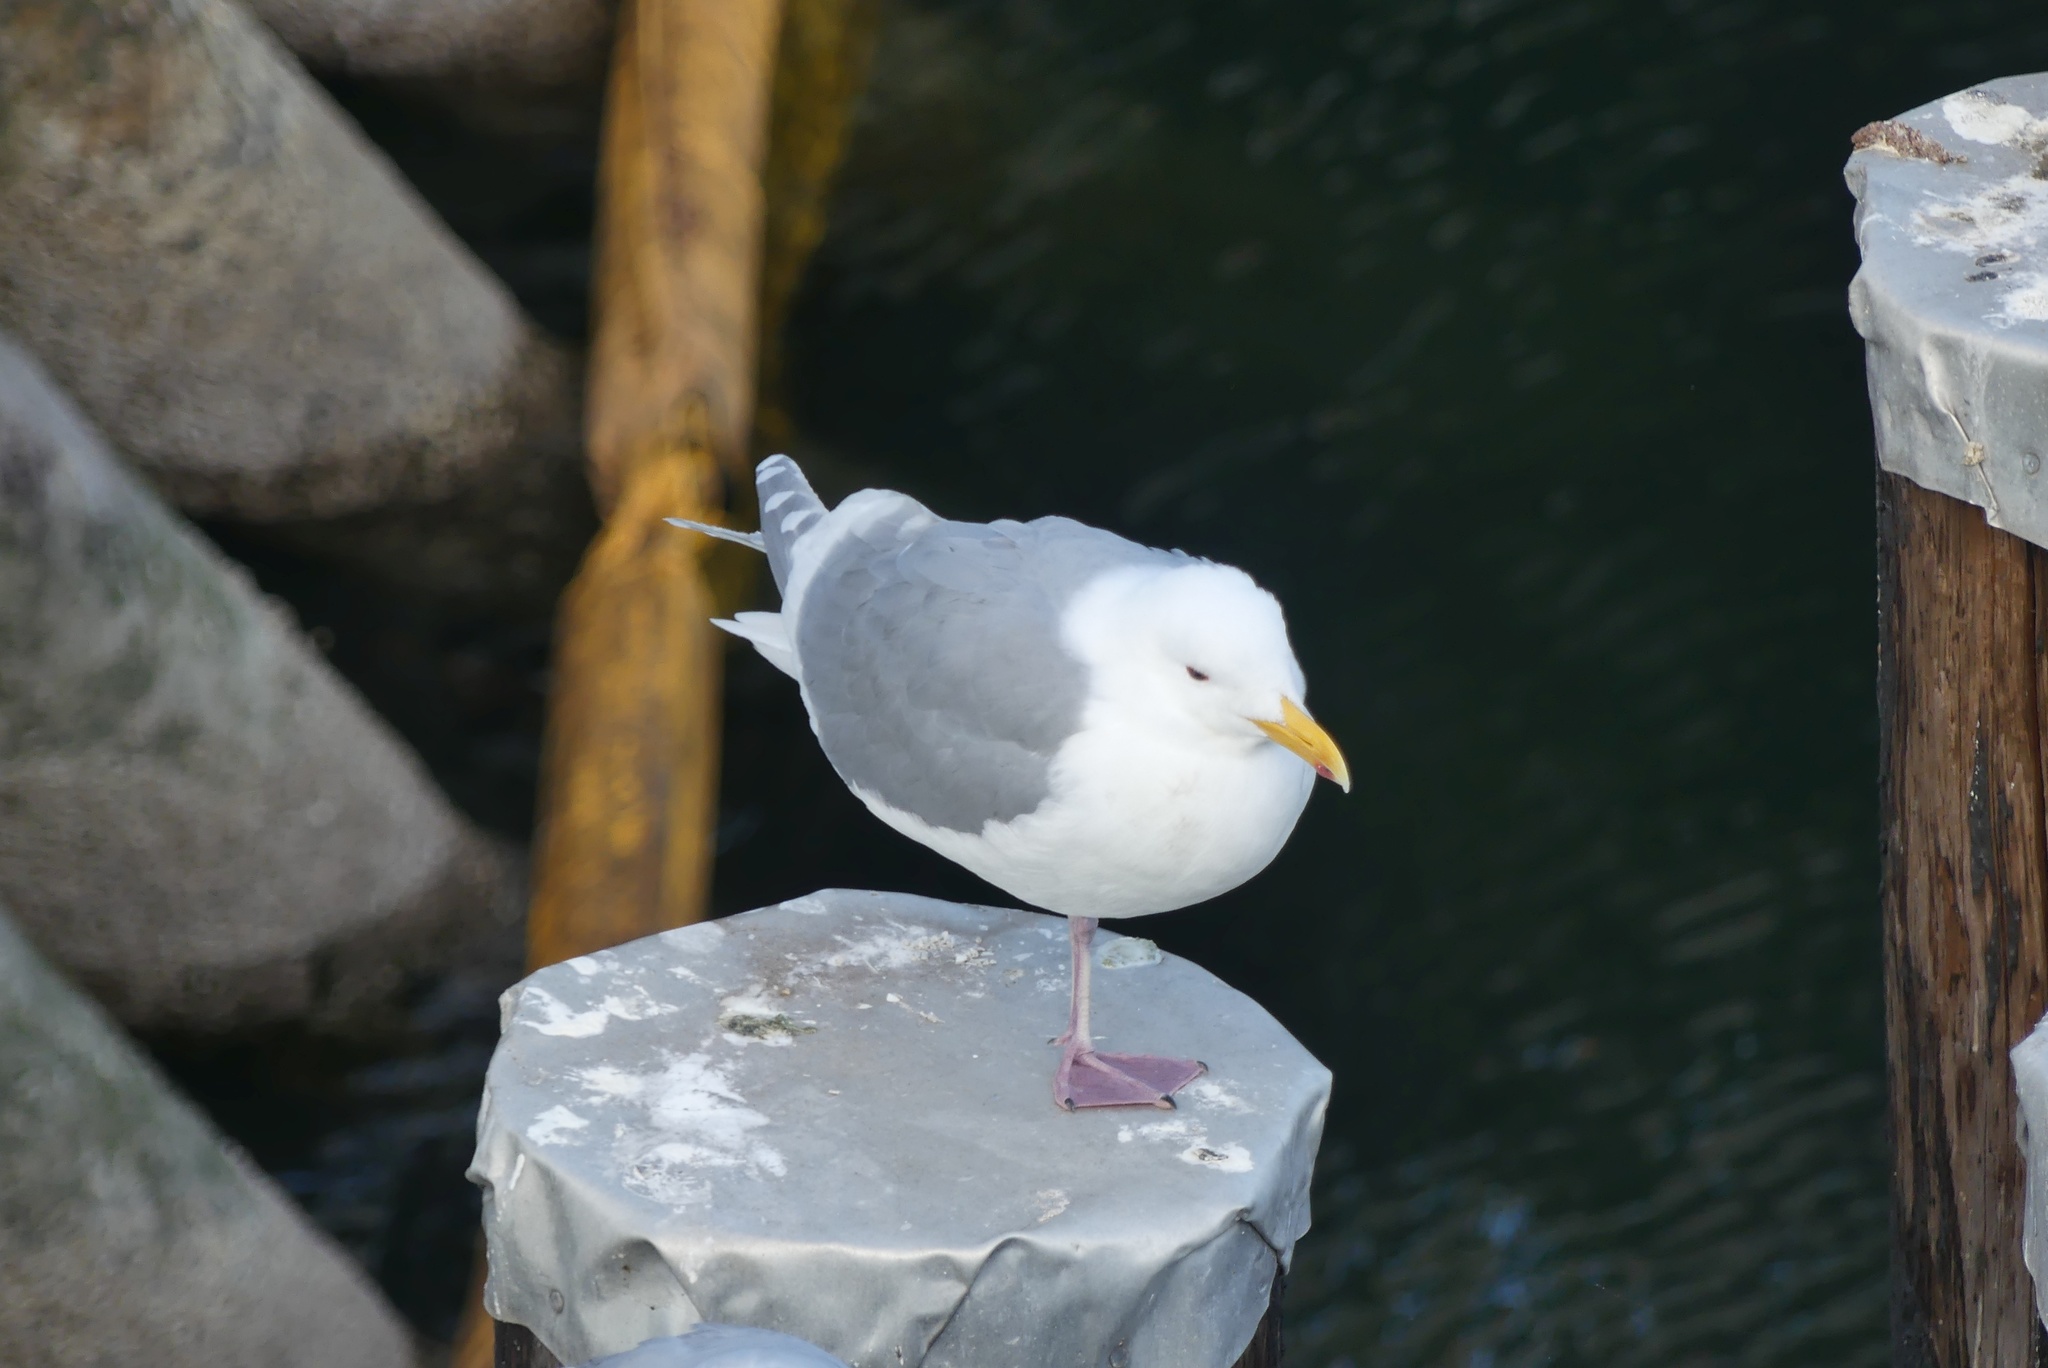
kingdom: Animalia
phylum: Chordata
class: Aves
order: Charadriiformes
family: Laridae
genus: Larus
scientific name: Larus glaucescens
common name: Glaucous-winged gull
